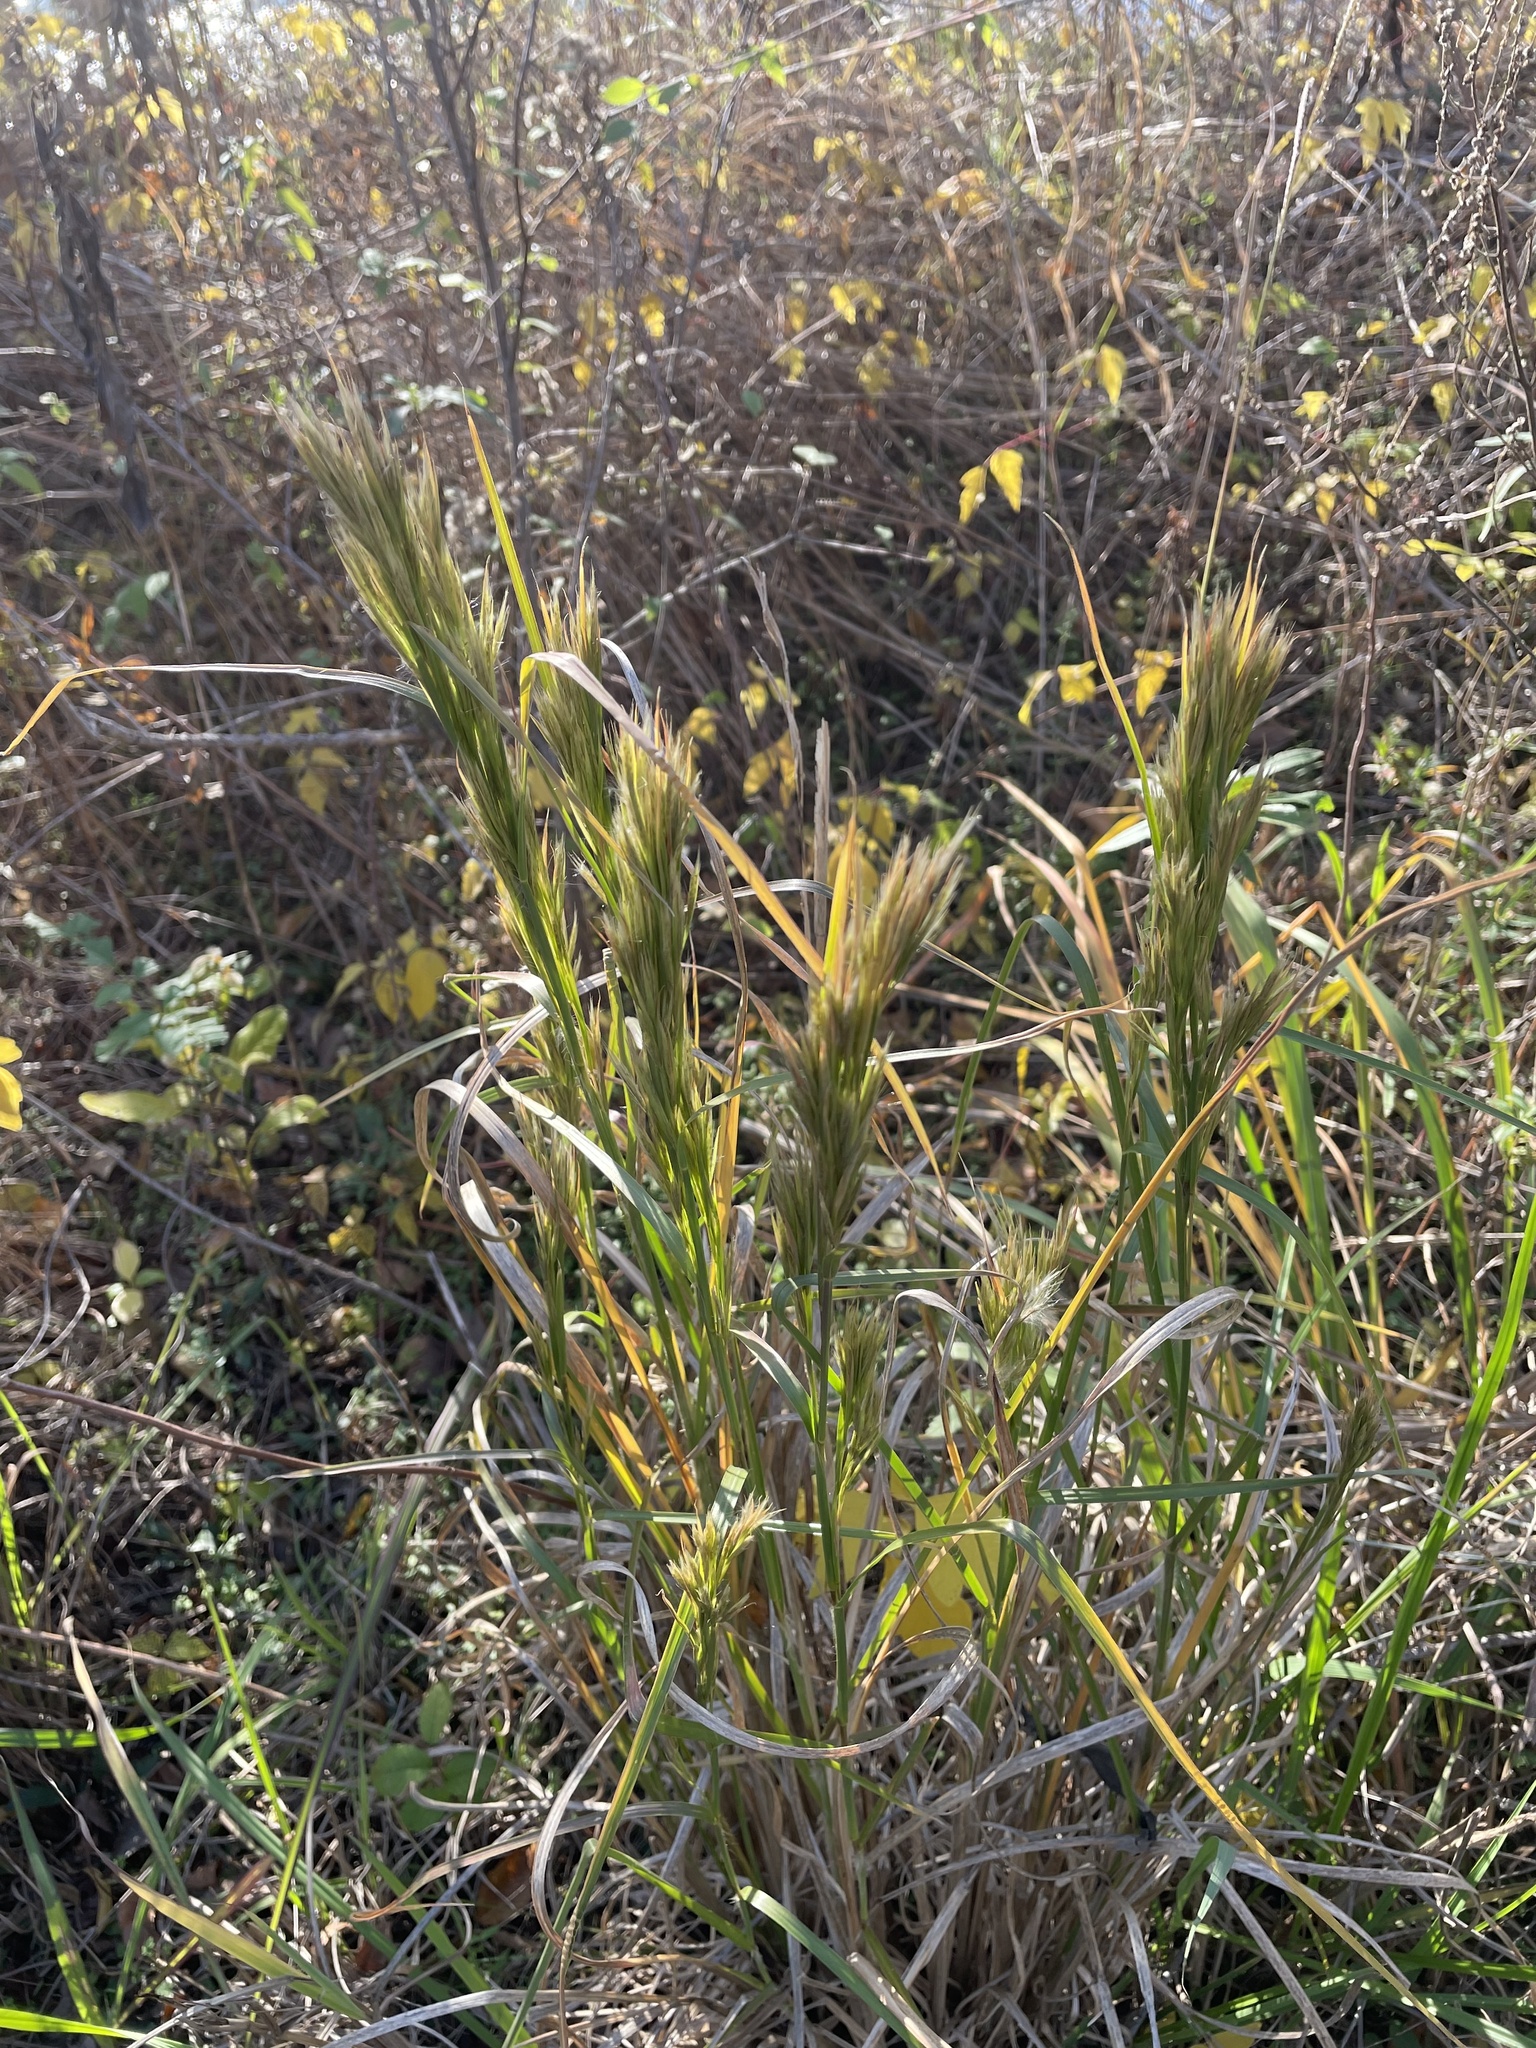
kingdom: Plantae
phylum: Tracheophyta
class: Liliopsida
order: Poales
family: Poaceae
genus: Andropogon
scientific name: Andropogon tenuispatheus
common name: Bushy bluestem
